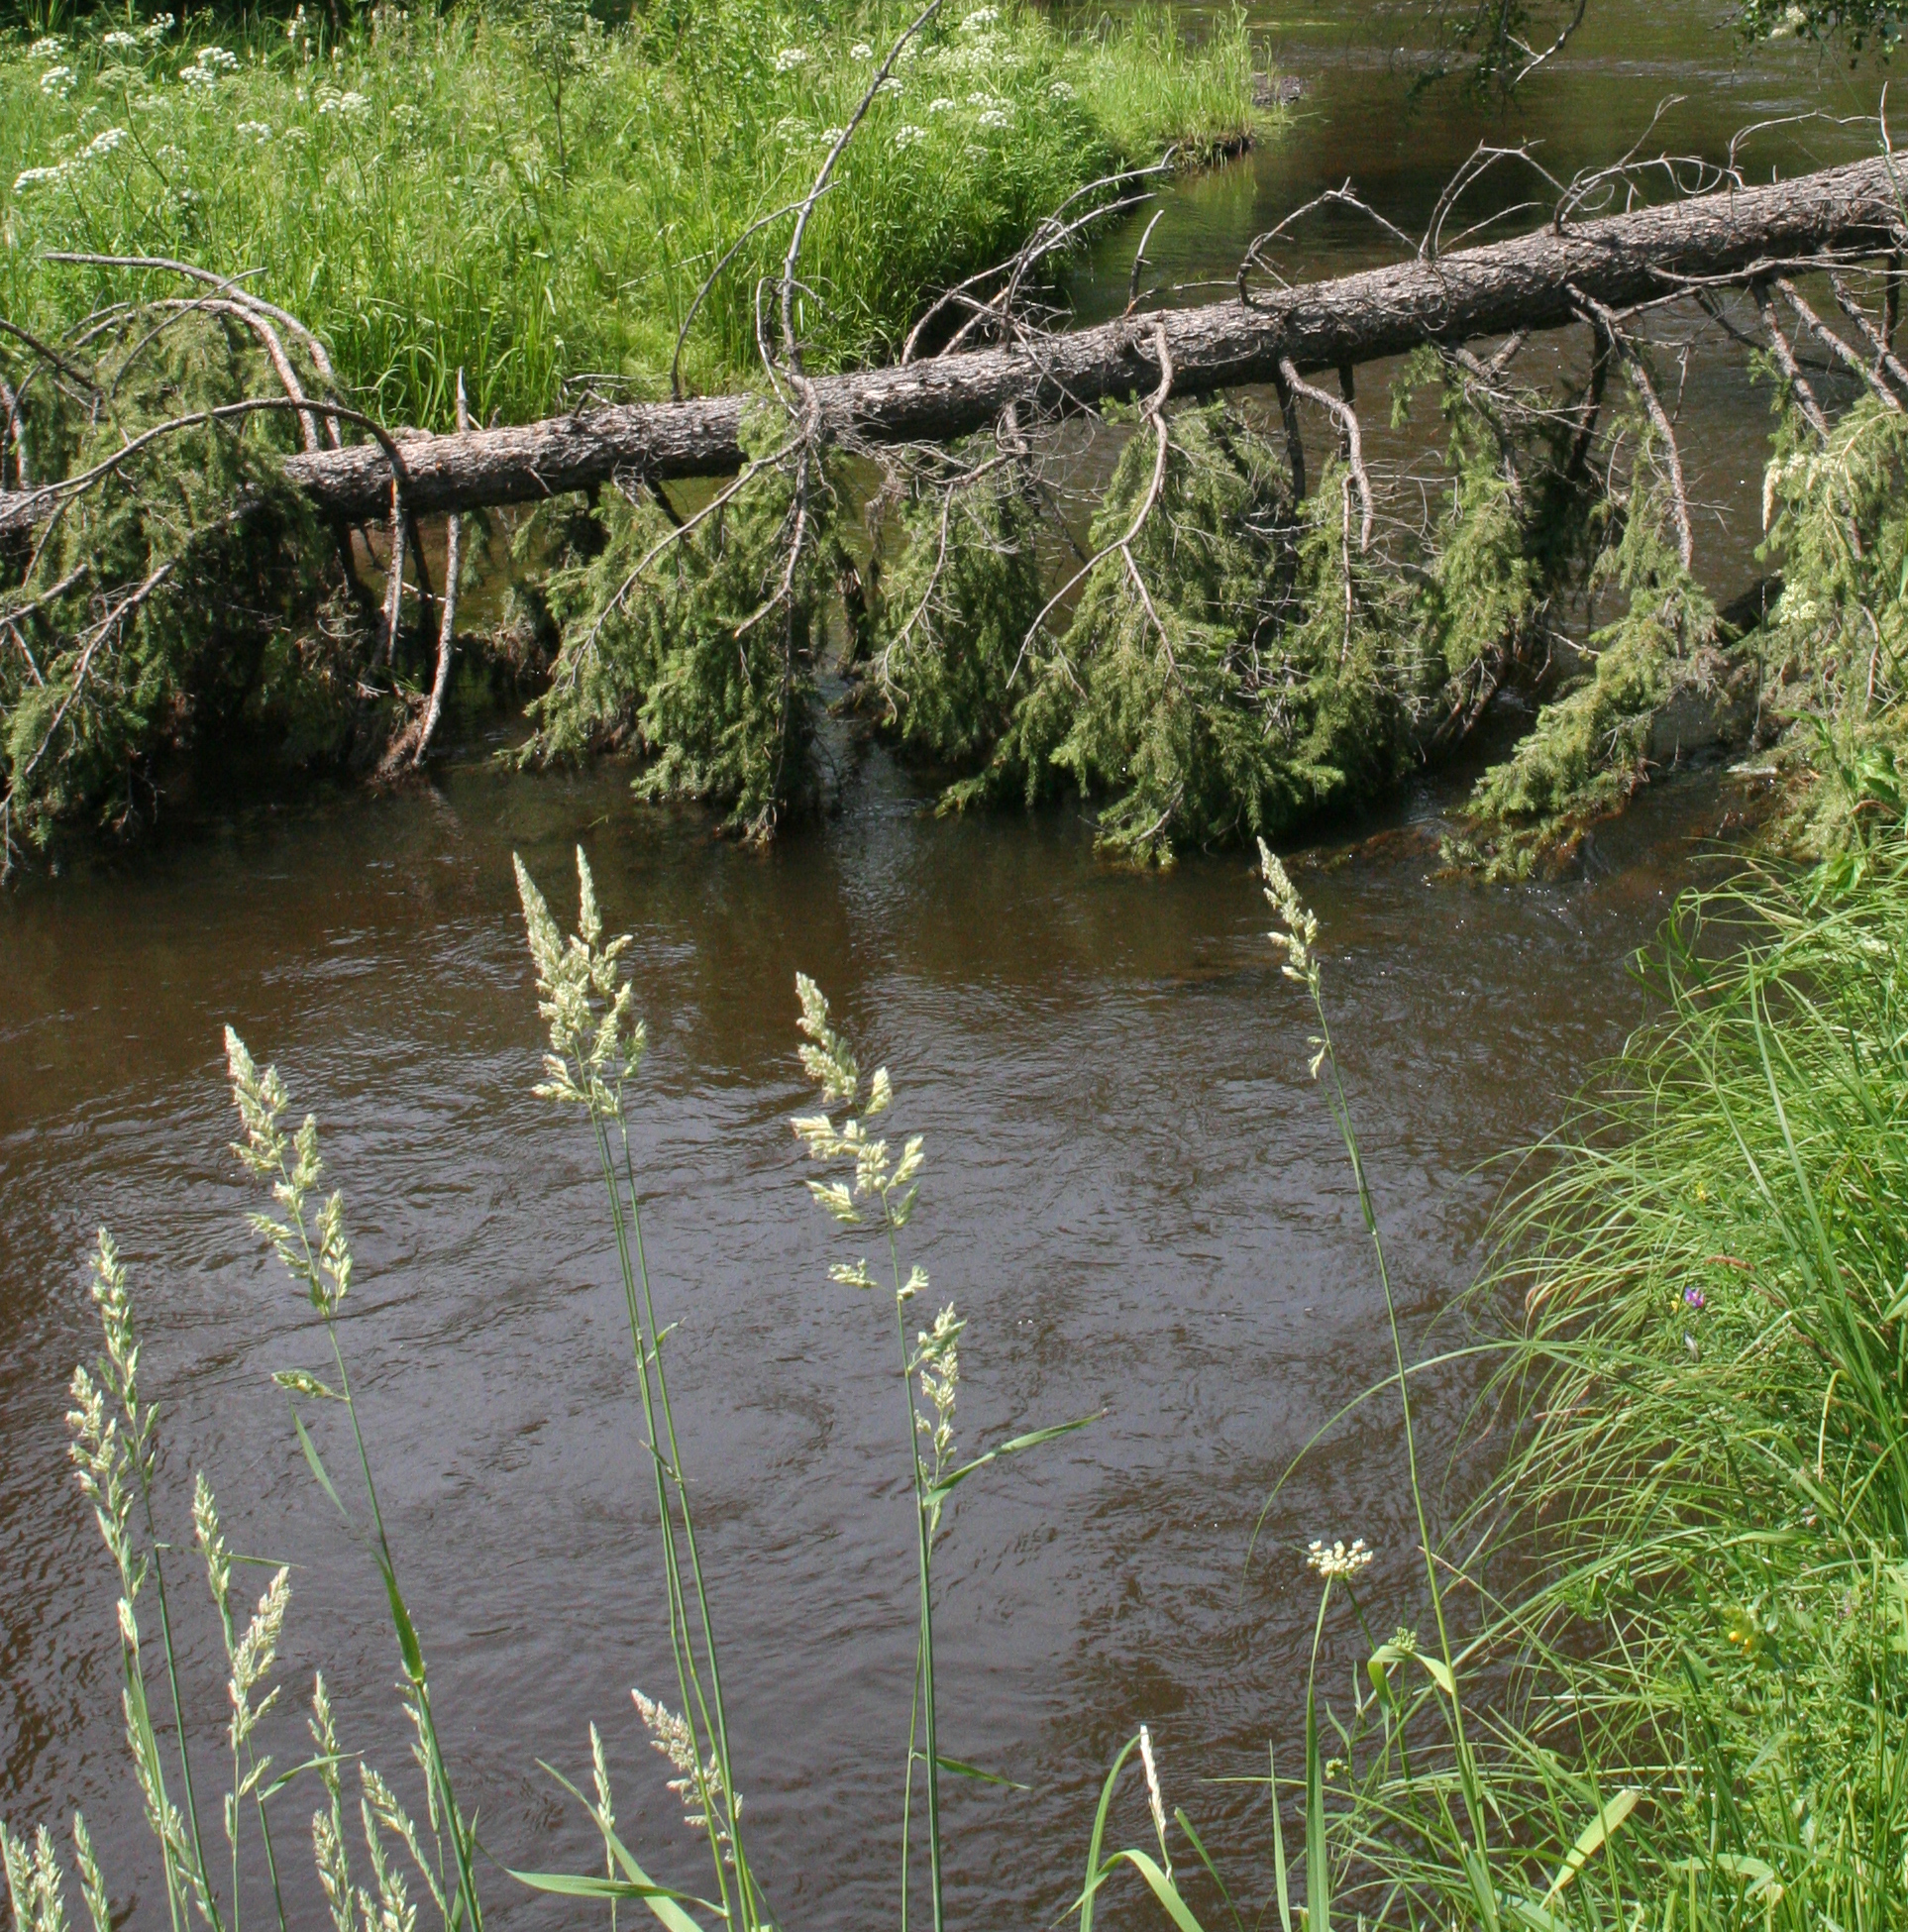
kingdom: Plantae
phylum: Tracheophyta
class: Liliopsida
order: Poales
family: Poaceae
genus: Phalaris
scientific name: Phalaris arundinacea
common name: Reed canary-grass
